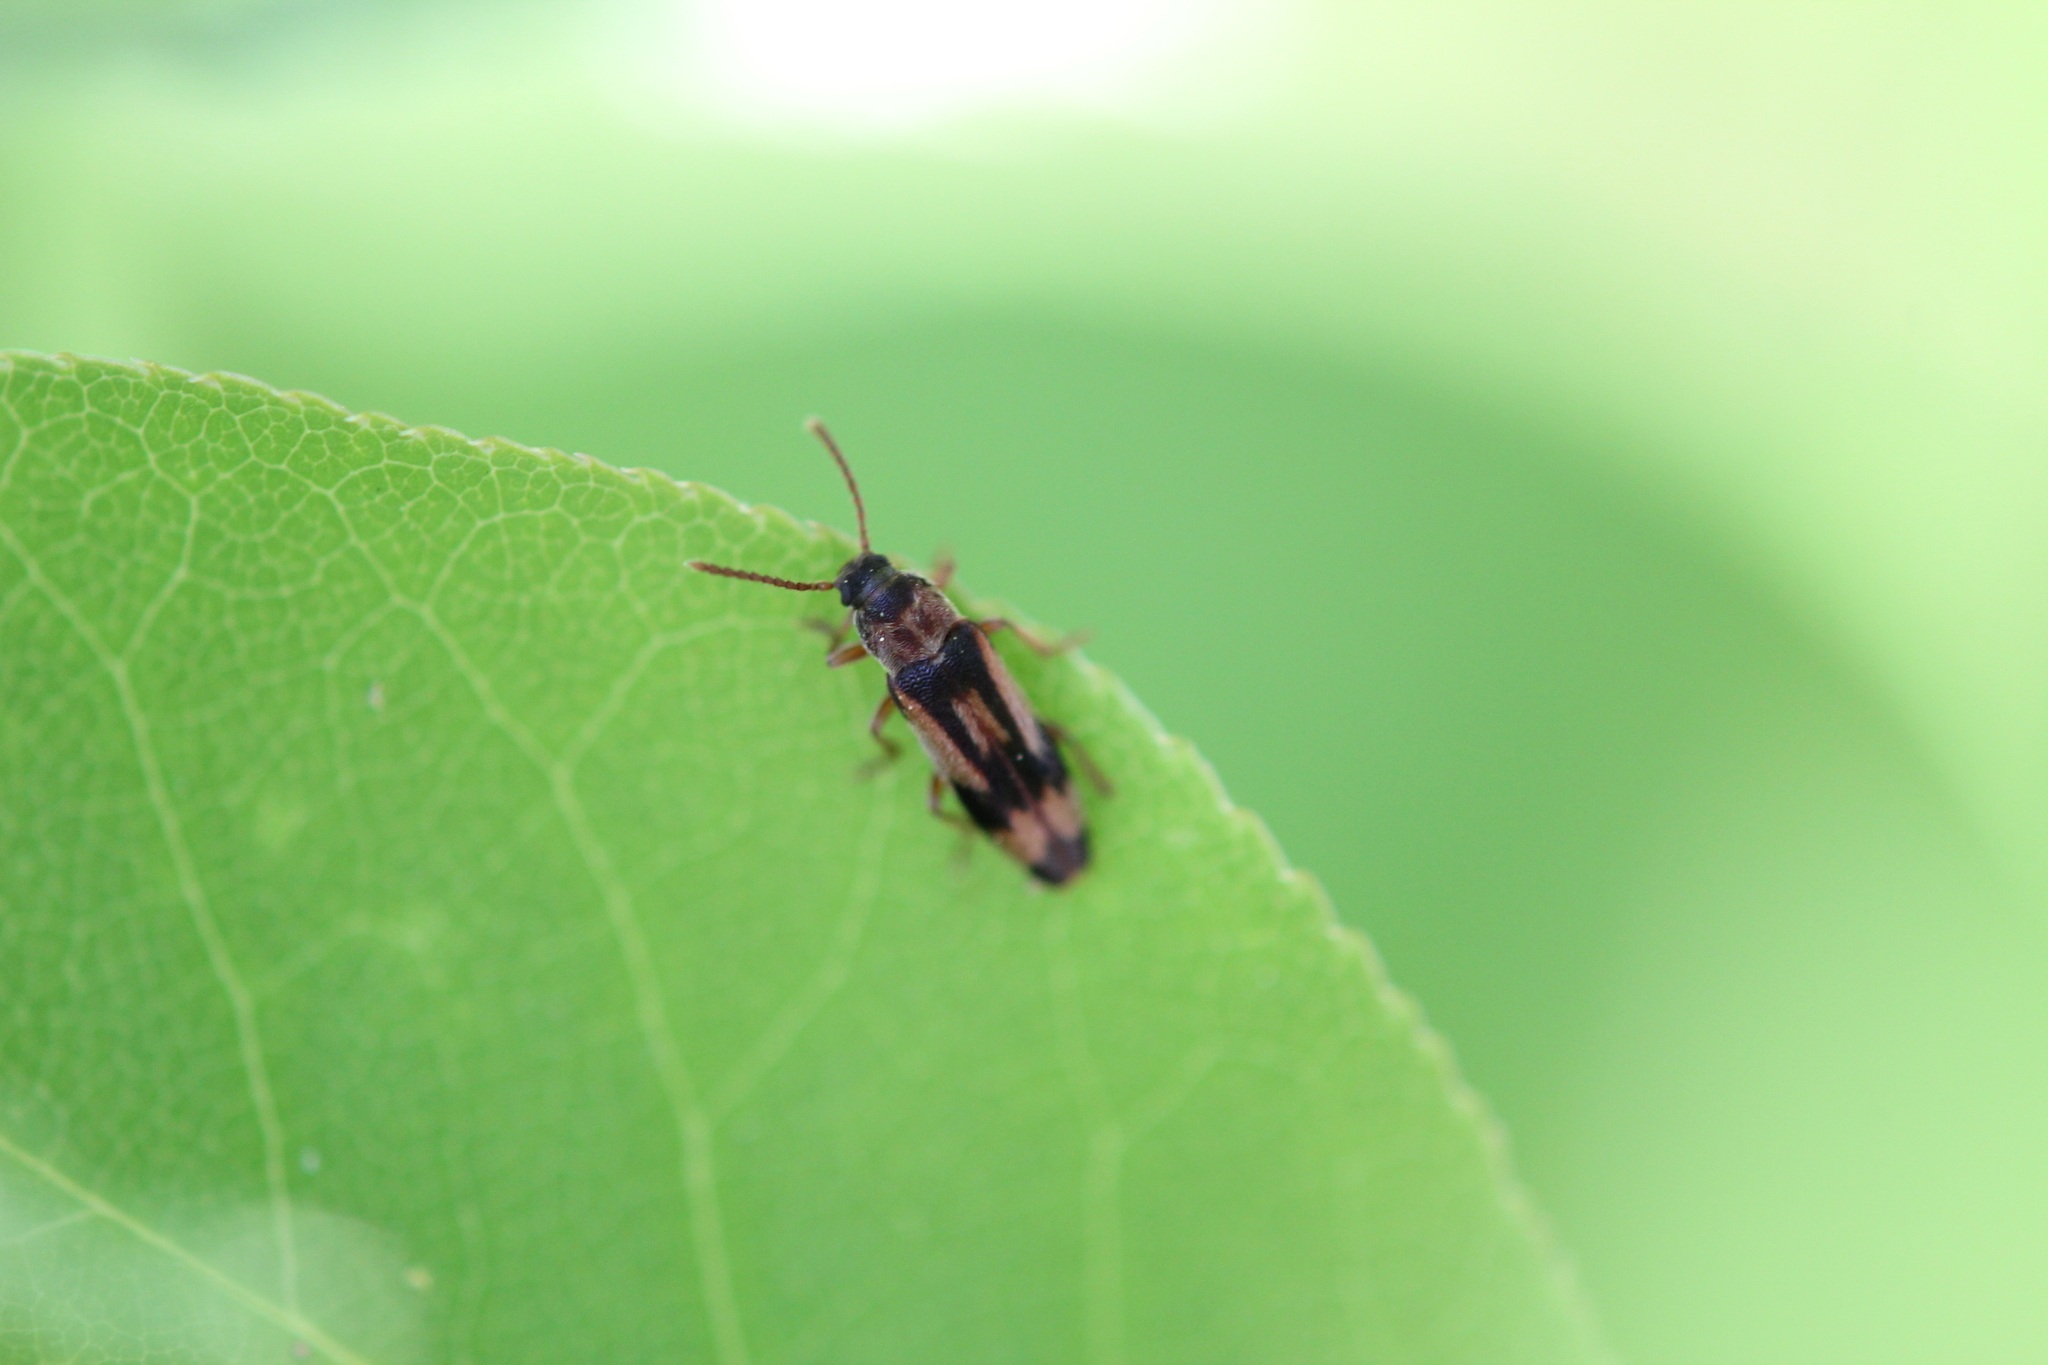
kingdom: Animalia
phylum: Arthropoda
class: Insecta
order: Coleoptera
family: Melandryidae
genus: Hypulus
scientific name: Hypulus simulator
